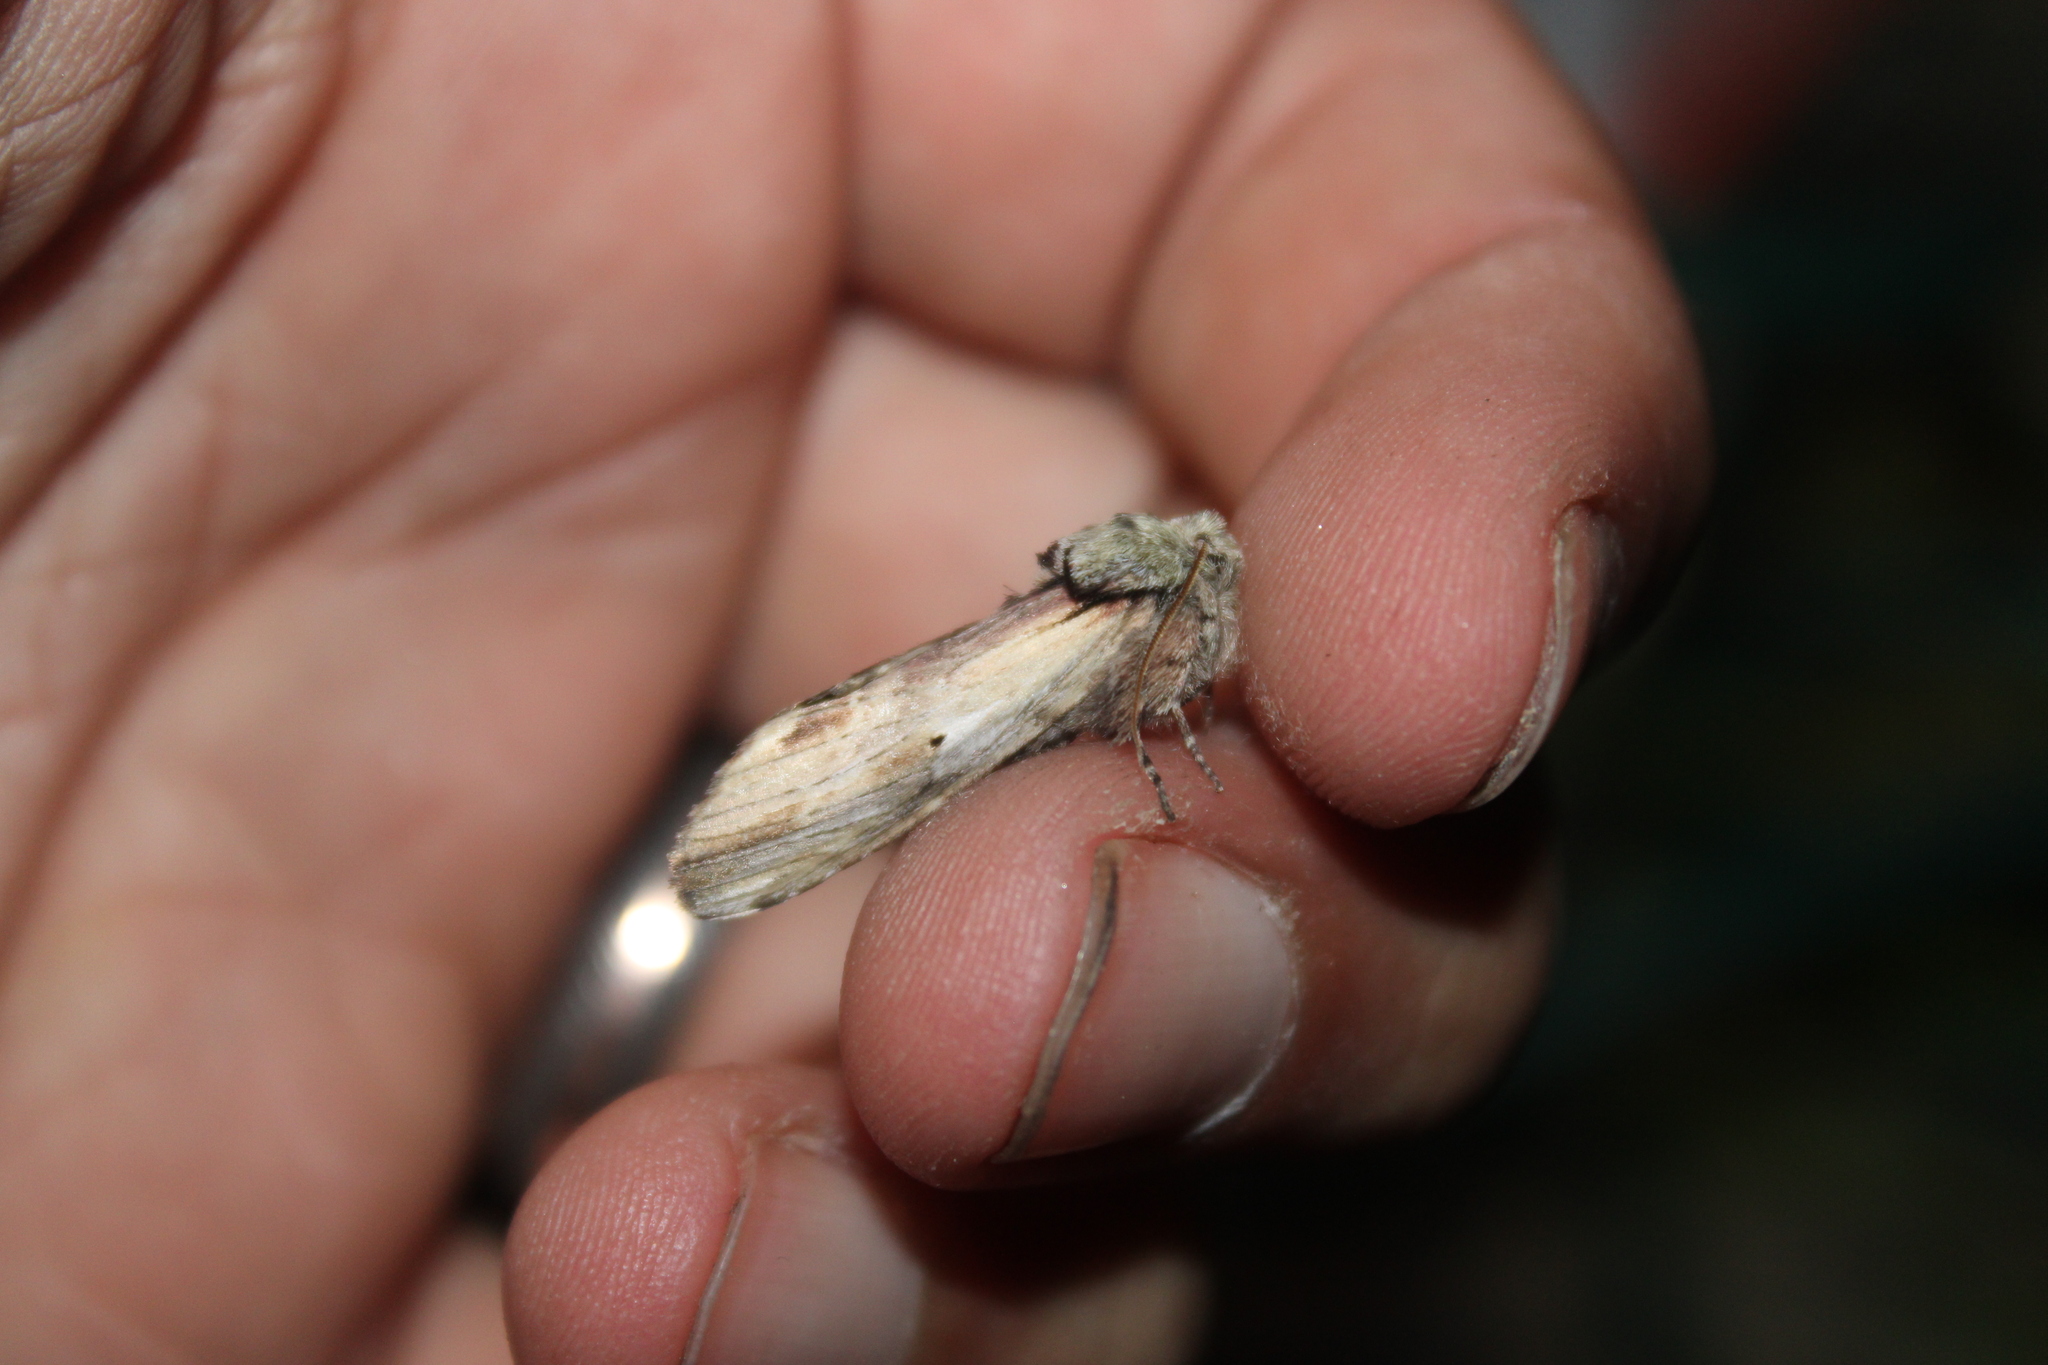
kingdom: Animalia
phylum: Arthropoda
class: Insecta
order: Lepidoptera
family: Notodontidae
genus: Schizura
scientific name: Schizura
